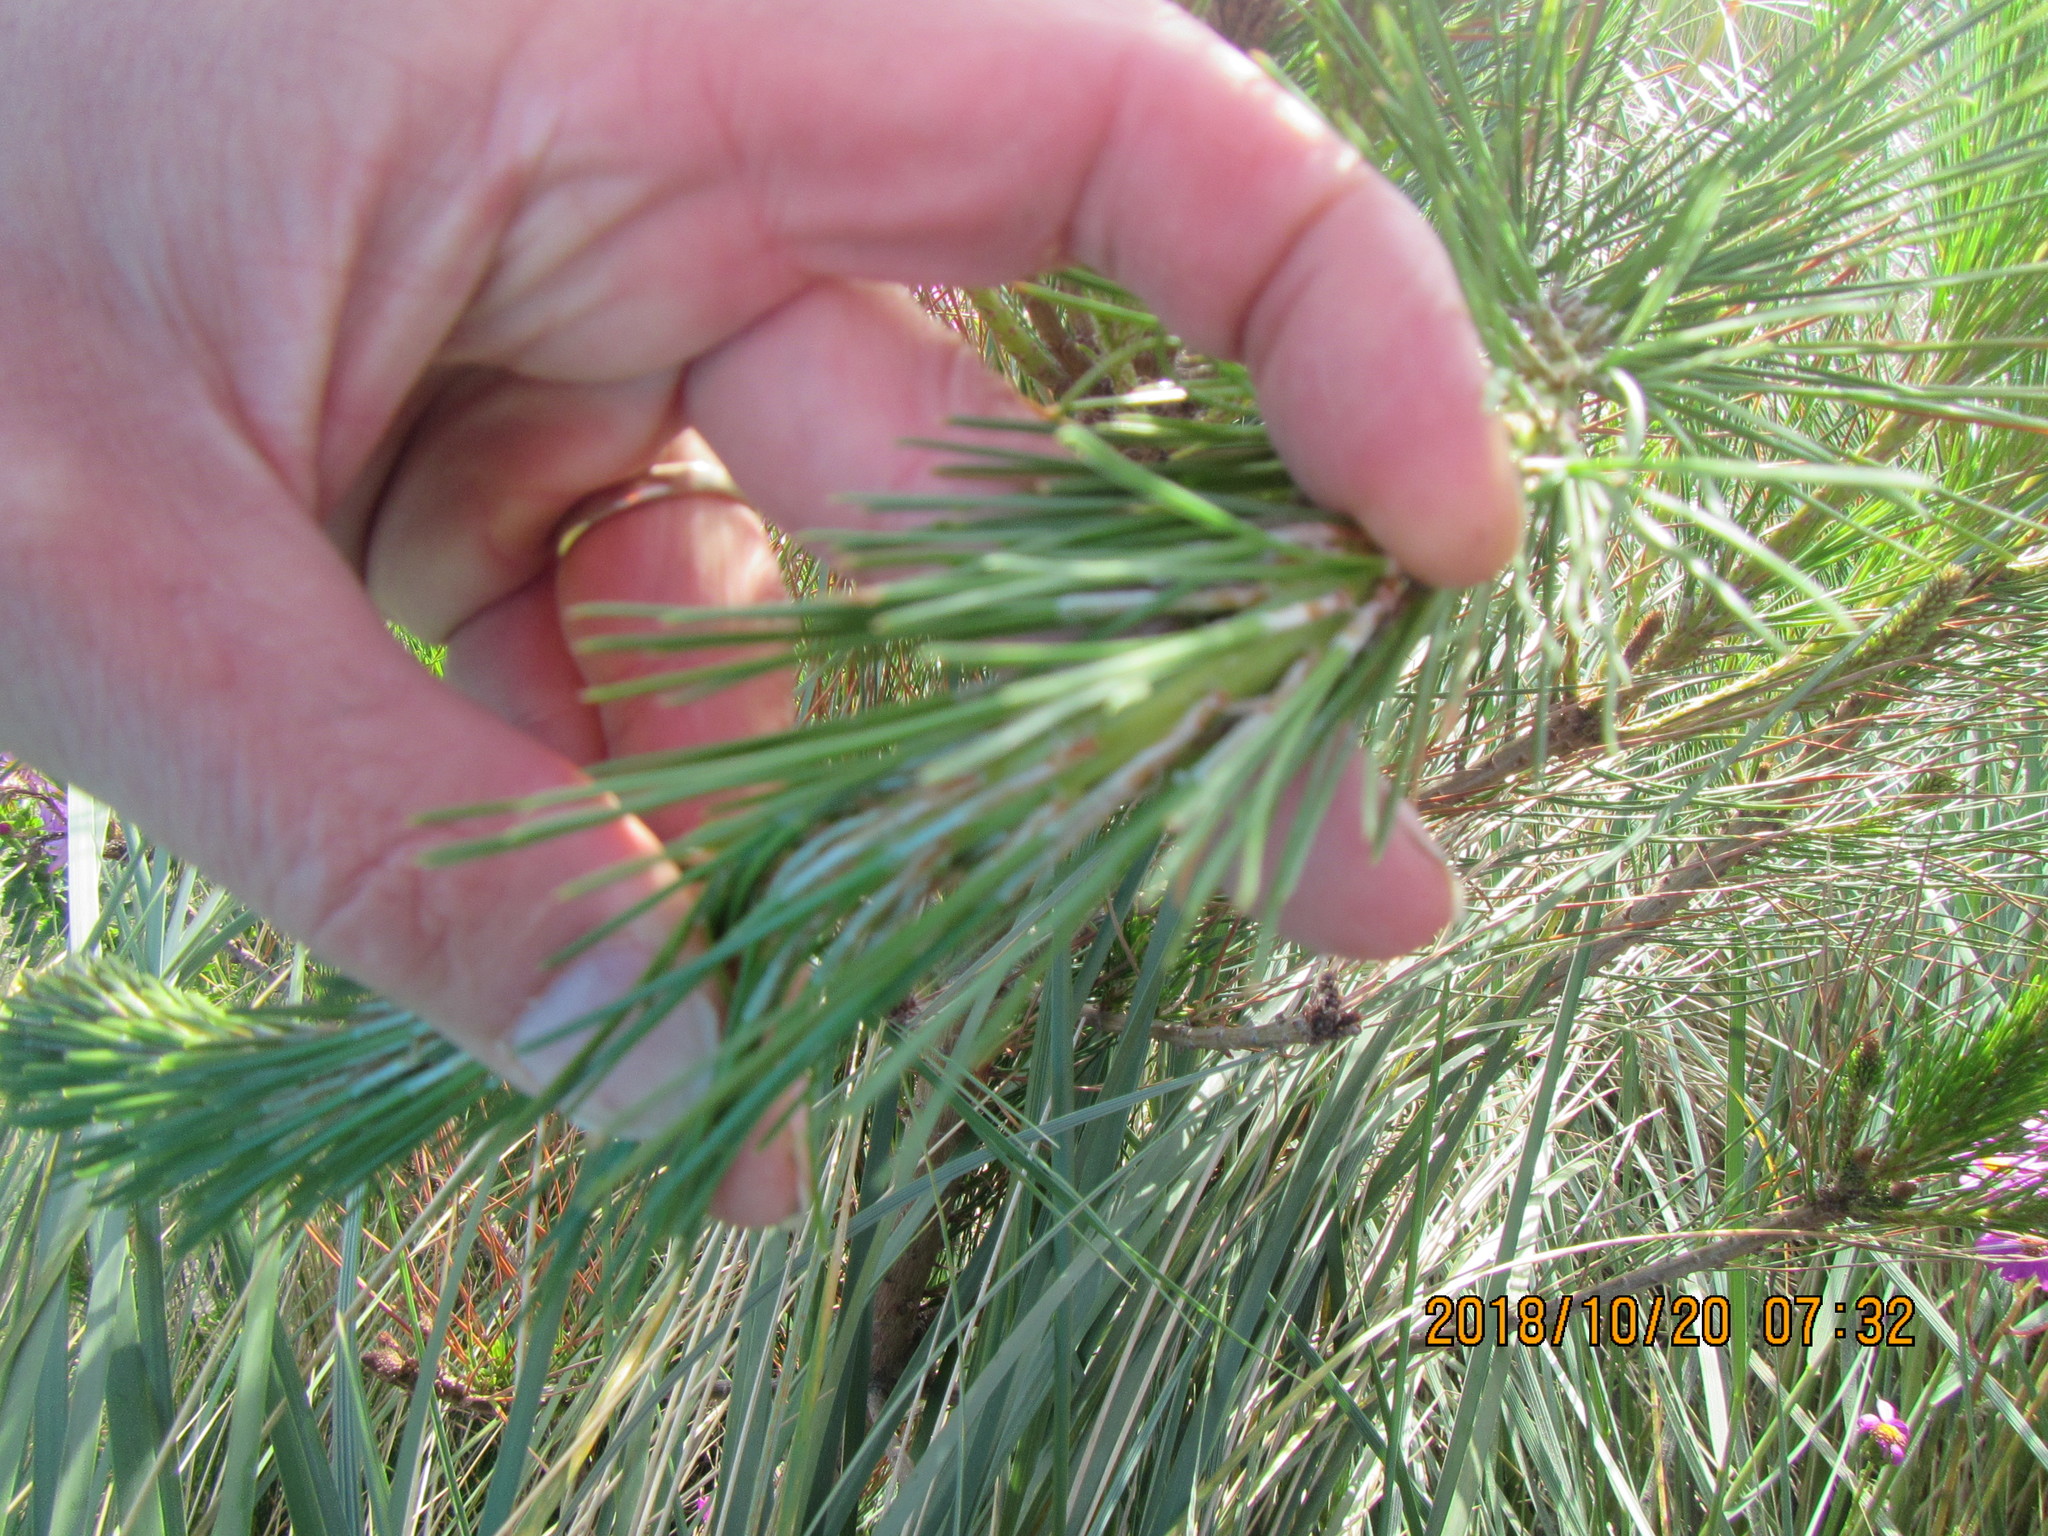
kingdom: Plantae
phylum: Tracheophyta
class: Pinopsida
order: Pinales
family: Pinaceae
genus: Pinus
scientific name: Pinus radiata
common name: Monterey pine
